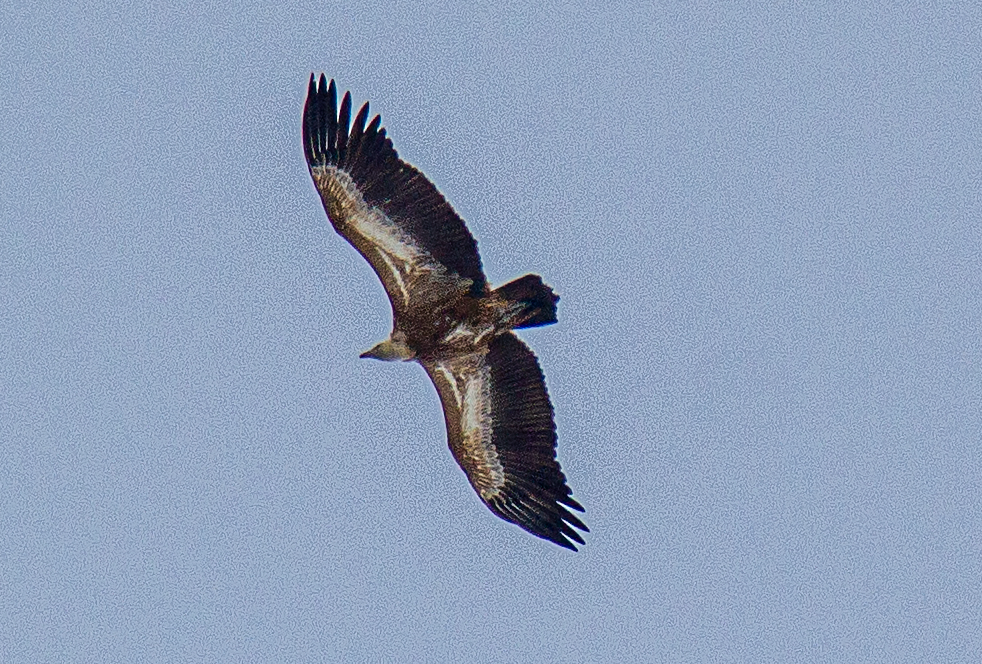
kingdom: Animalia
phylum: Chordata
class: Aves
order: Accipitriformes
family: Accipitridae
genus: Gyps
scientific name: Gyps fulvus
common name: Griffon vulture
